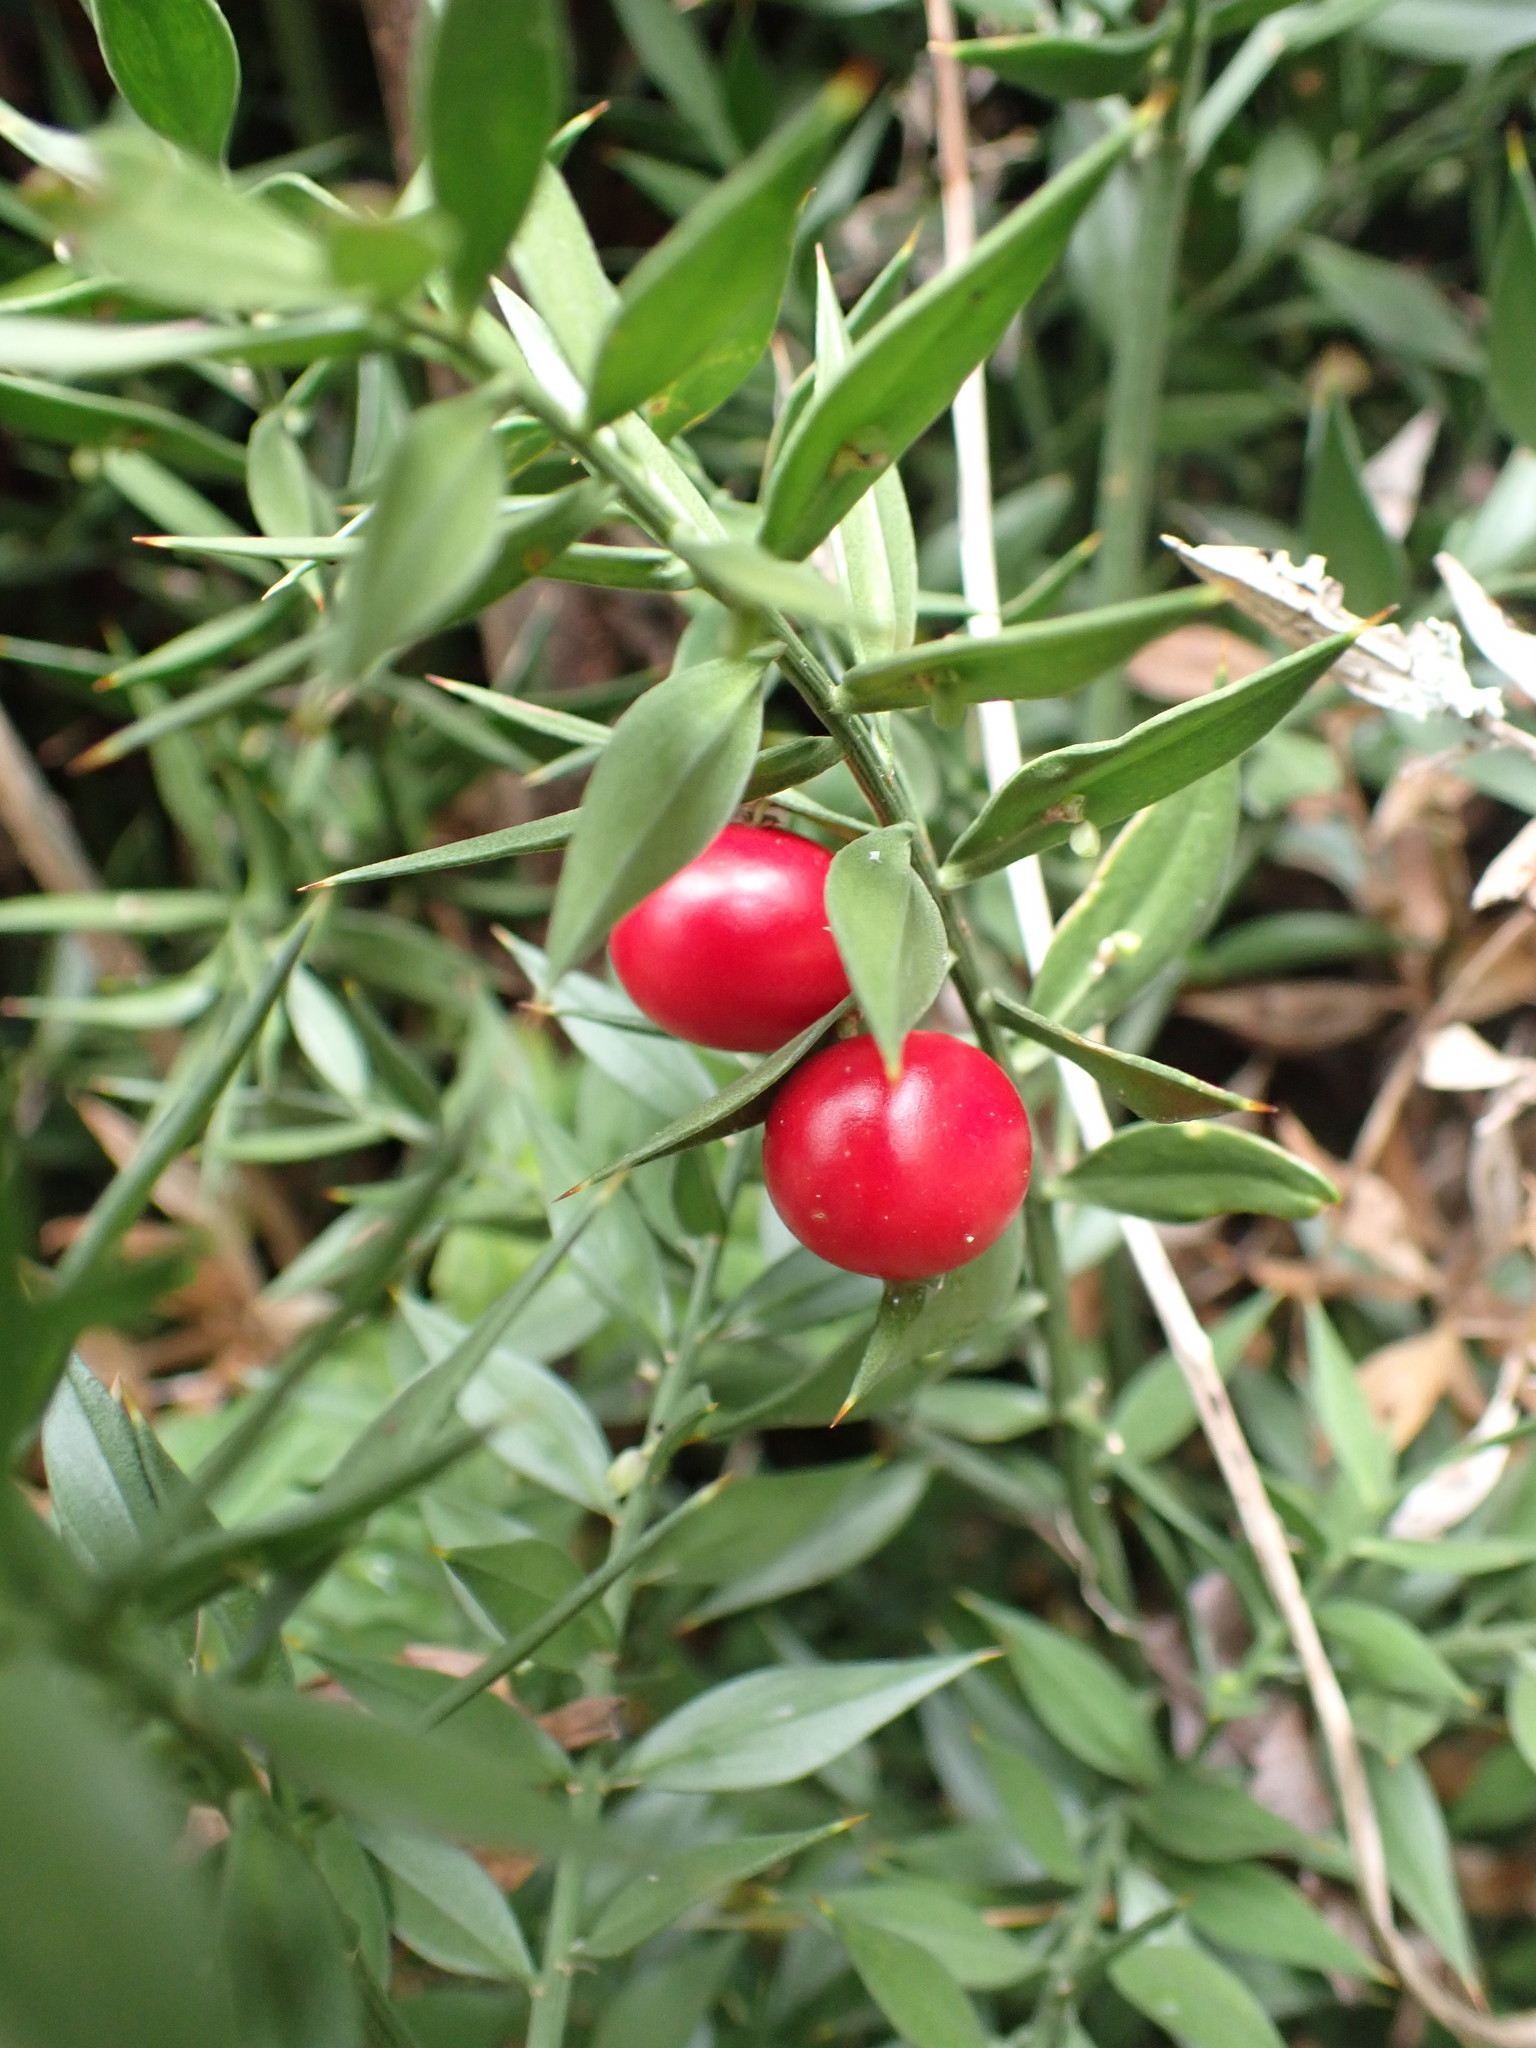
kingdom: Plantae
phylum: Tracheophyta
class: Liliopsida
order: Asparagales
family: Asparagaceae
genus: Ruscus
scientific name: Ruscus aculeatus
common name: Butcher's-broom
